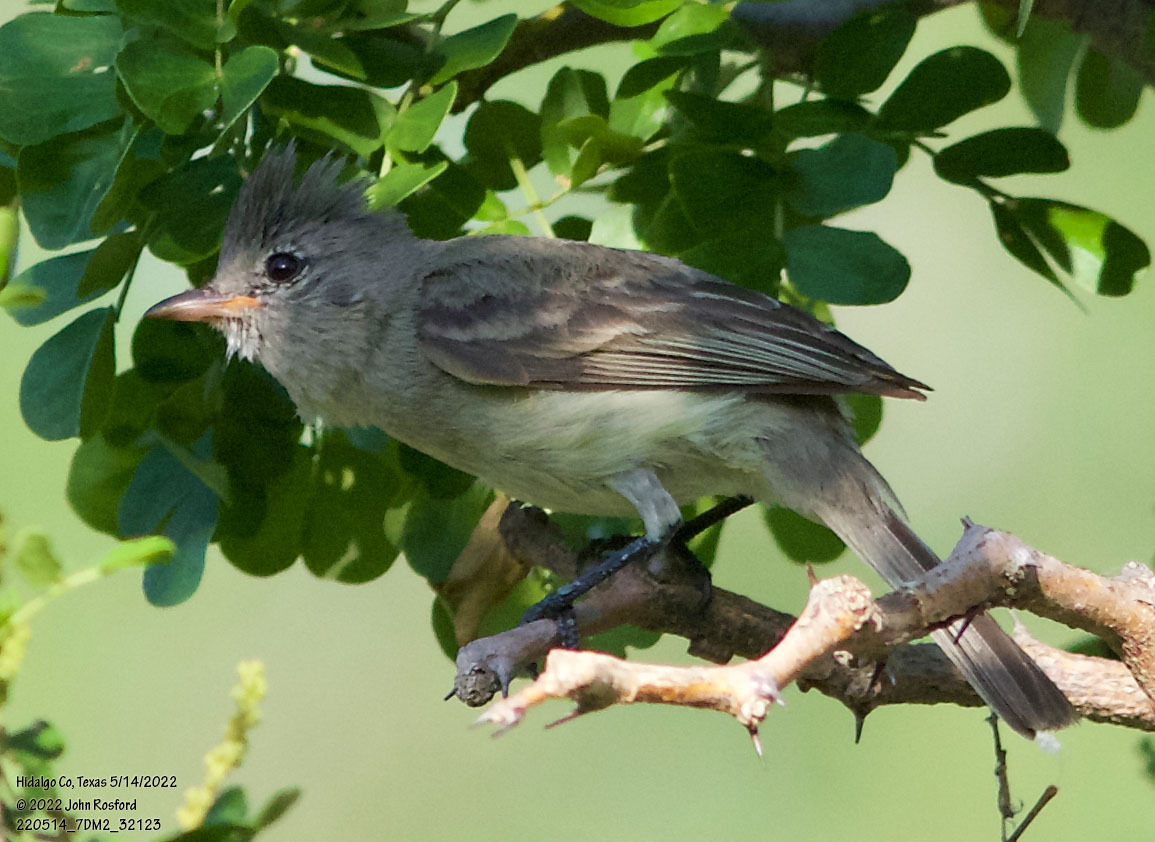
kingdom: Animalia
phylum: Chordata
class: Aves
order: Passeriformes
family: Tyrannidae
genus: Camptostoma
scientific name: Camptostoma imberbe
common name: Northern beardless-tyrannulet
